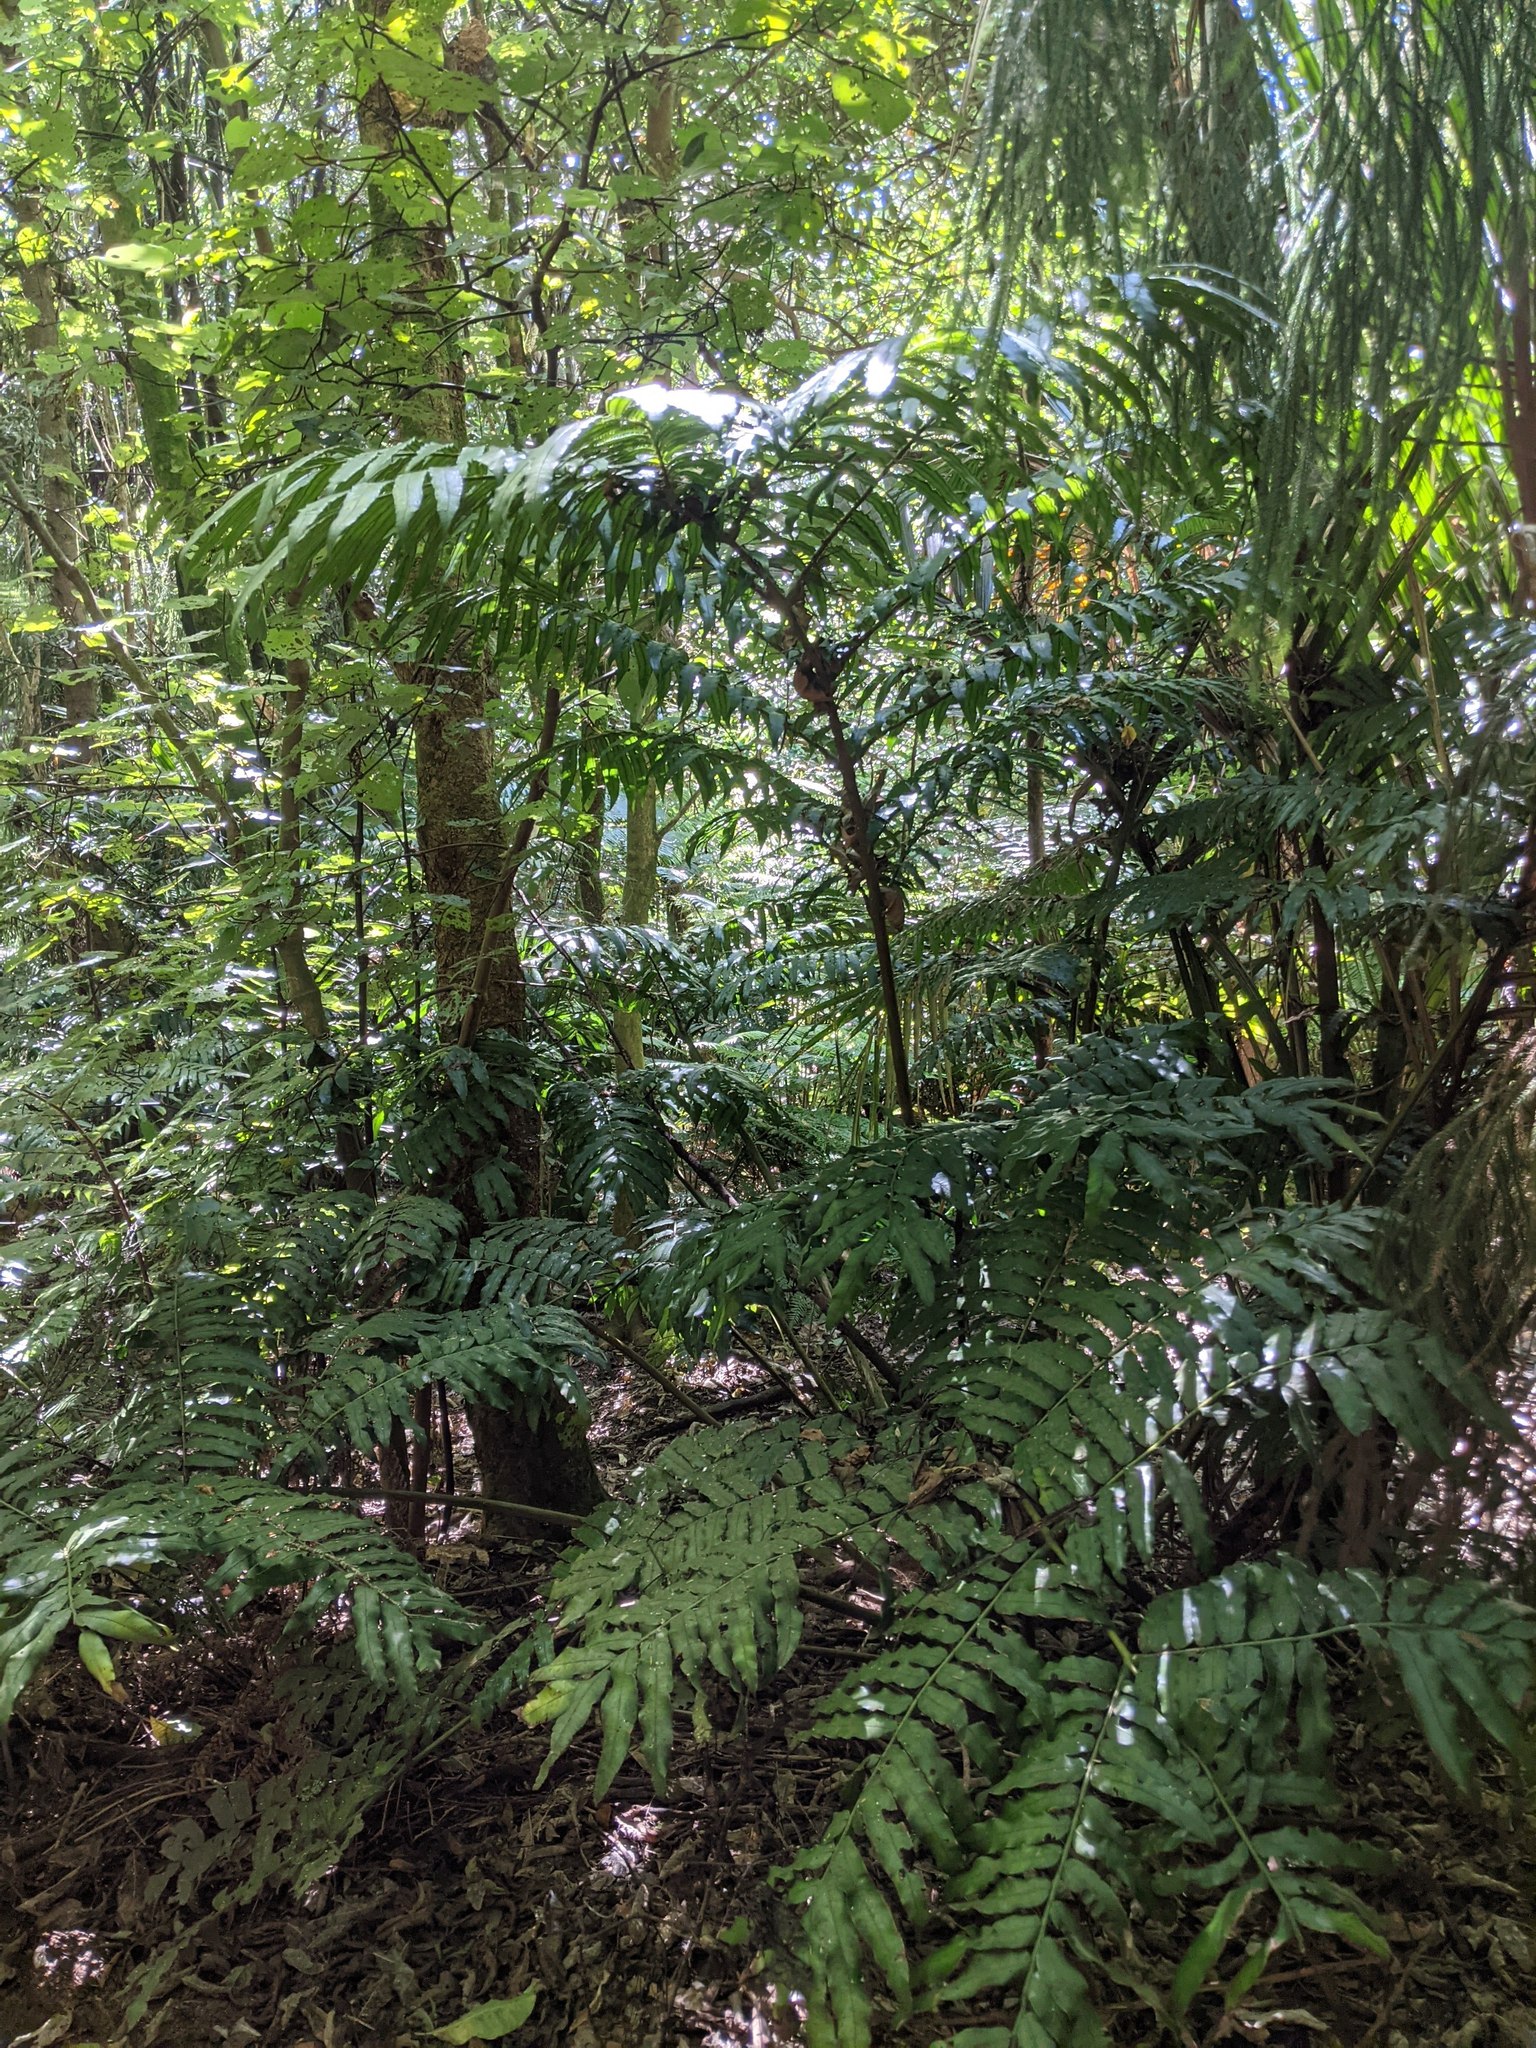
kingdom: Plantae
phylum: Tracheophyta
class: Polypodiopsida
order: Marattiales
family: Marattiaceae
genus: Ptisana
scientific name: Ptisana salicina
